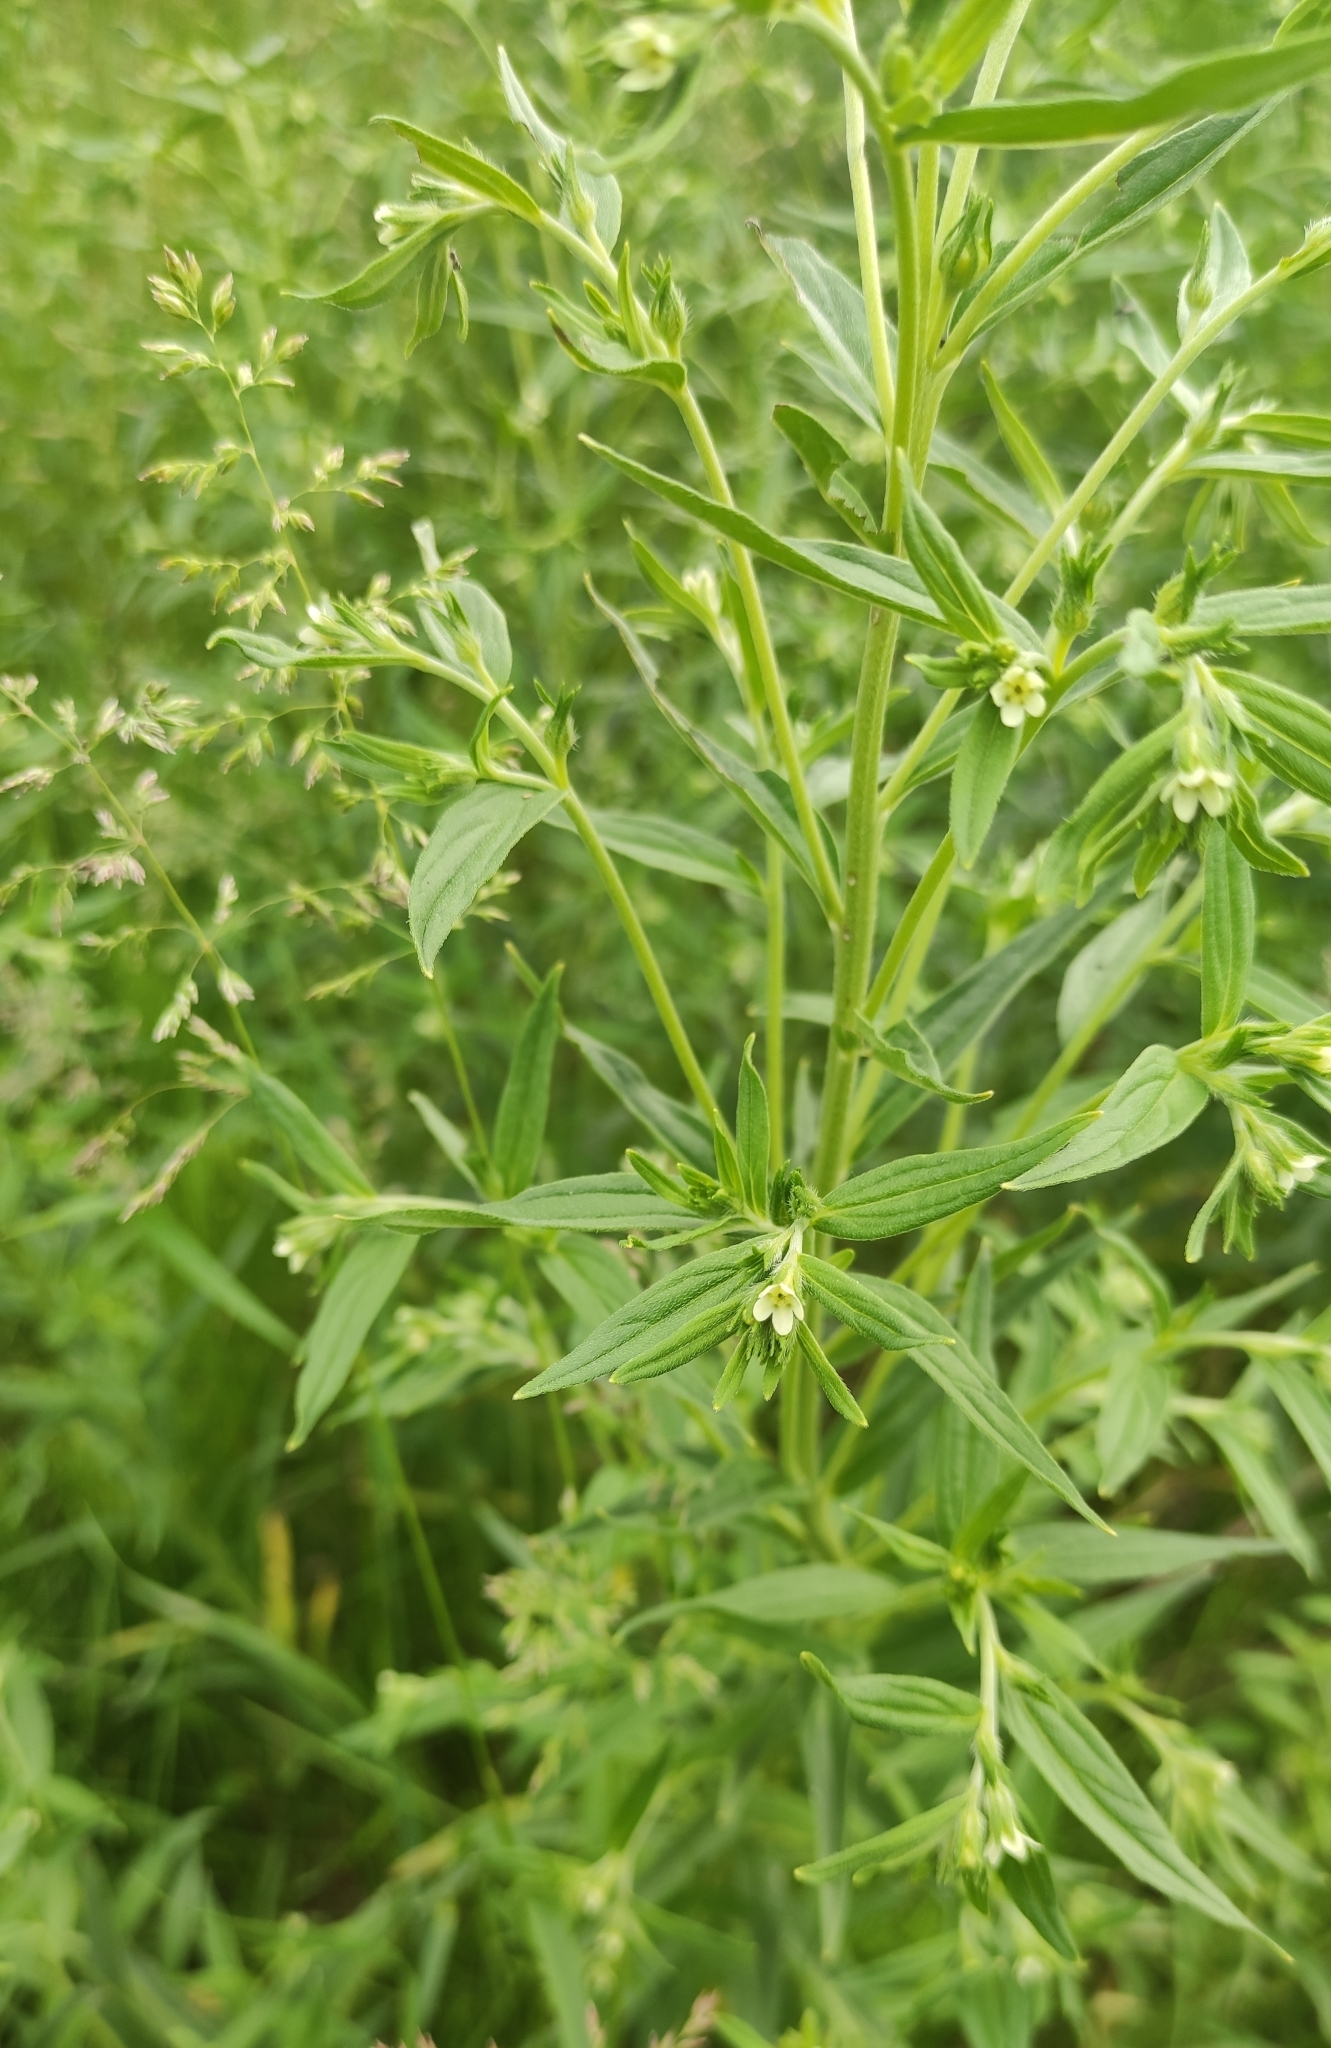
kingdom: Plantae
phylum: Tracheophyta
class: Magnoliopsida
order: Boraginales
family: Boraginaceae
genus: Lithospermum
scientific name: Lithospermum officinale
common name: Common gromwell
